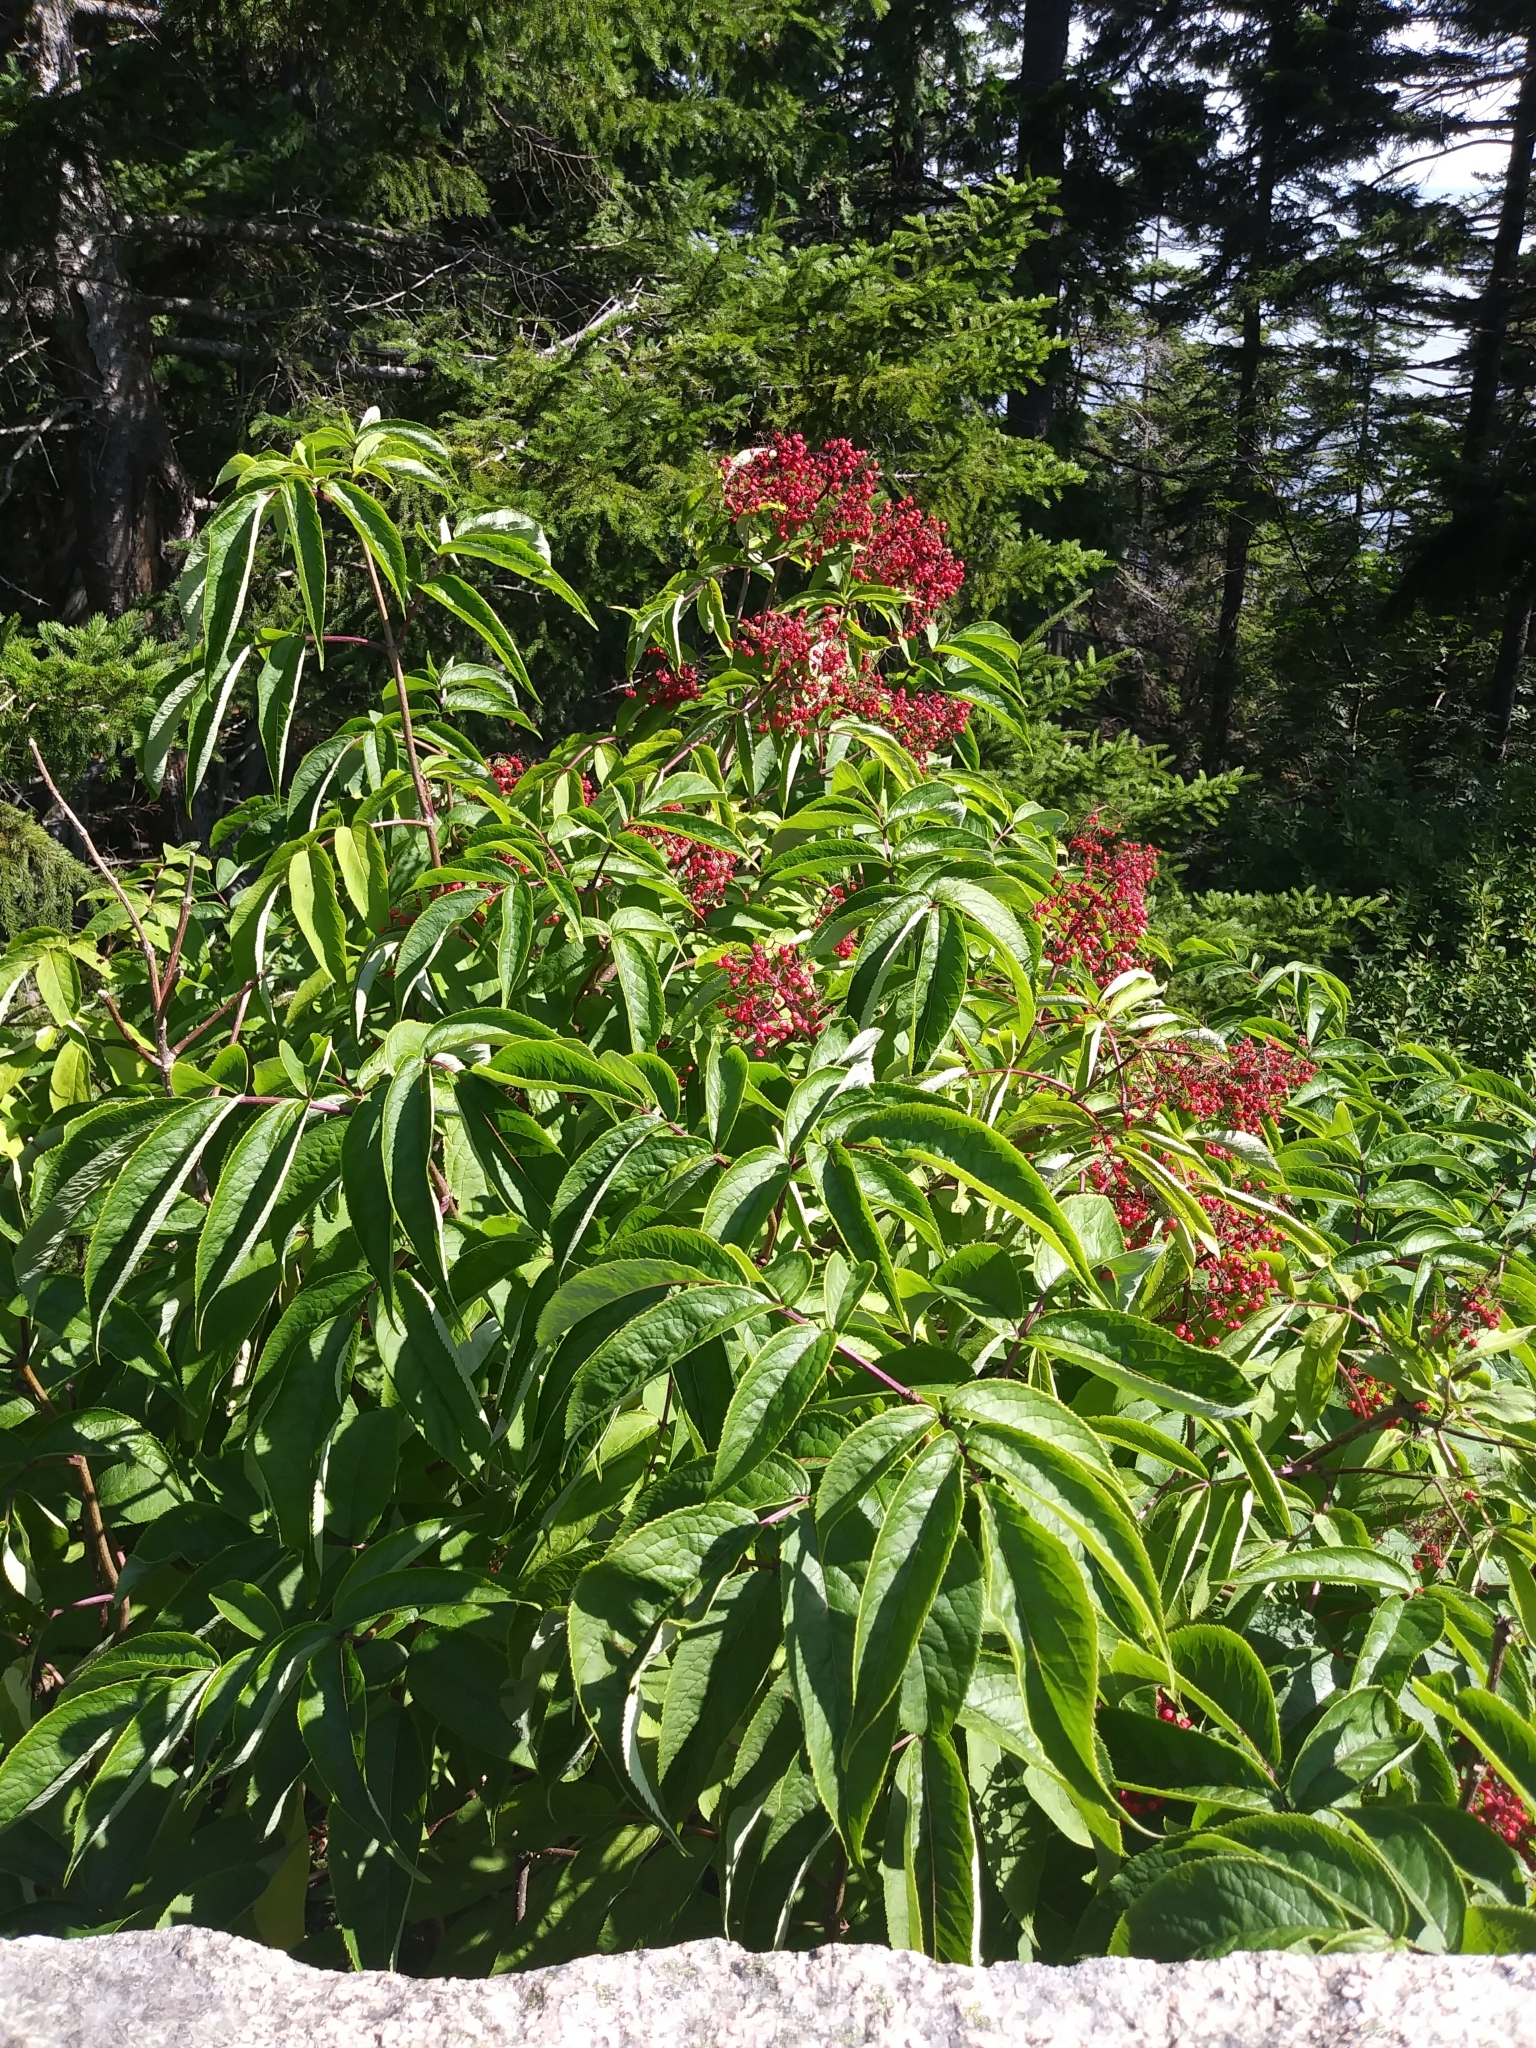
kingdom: Plantae
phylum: Tracheophyta
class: Magnoliopsida
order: Dipsacales
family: Viburnaceae
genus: Sambucus
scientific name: Sambucus racemosa
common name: Red-berried elder
